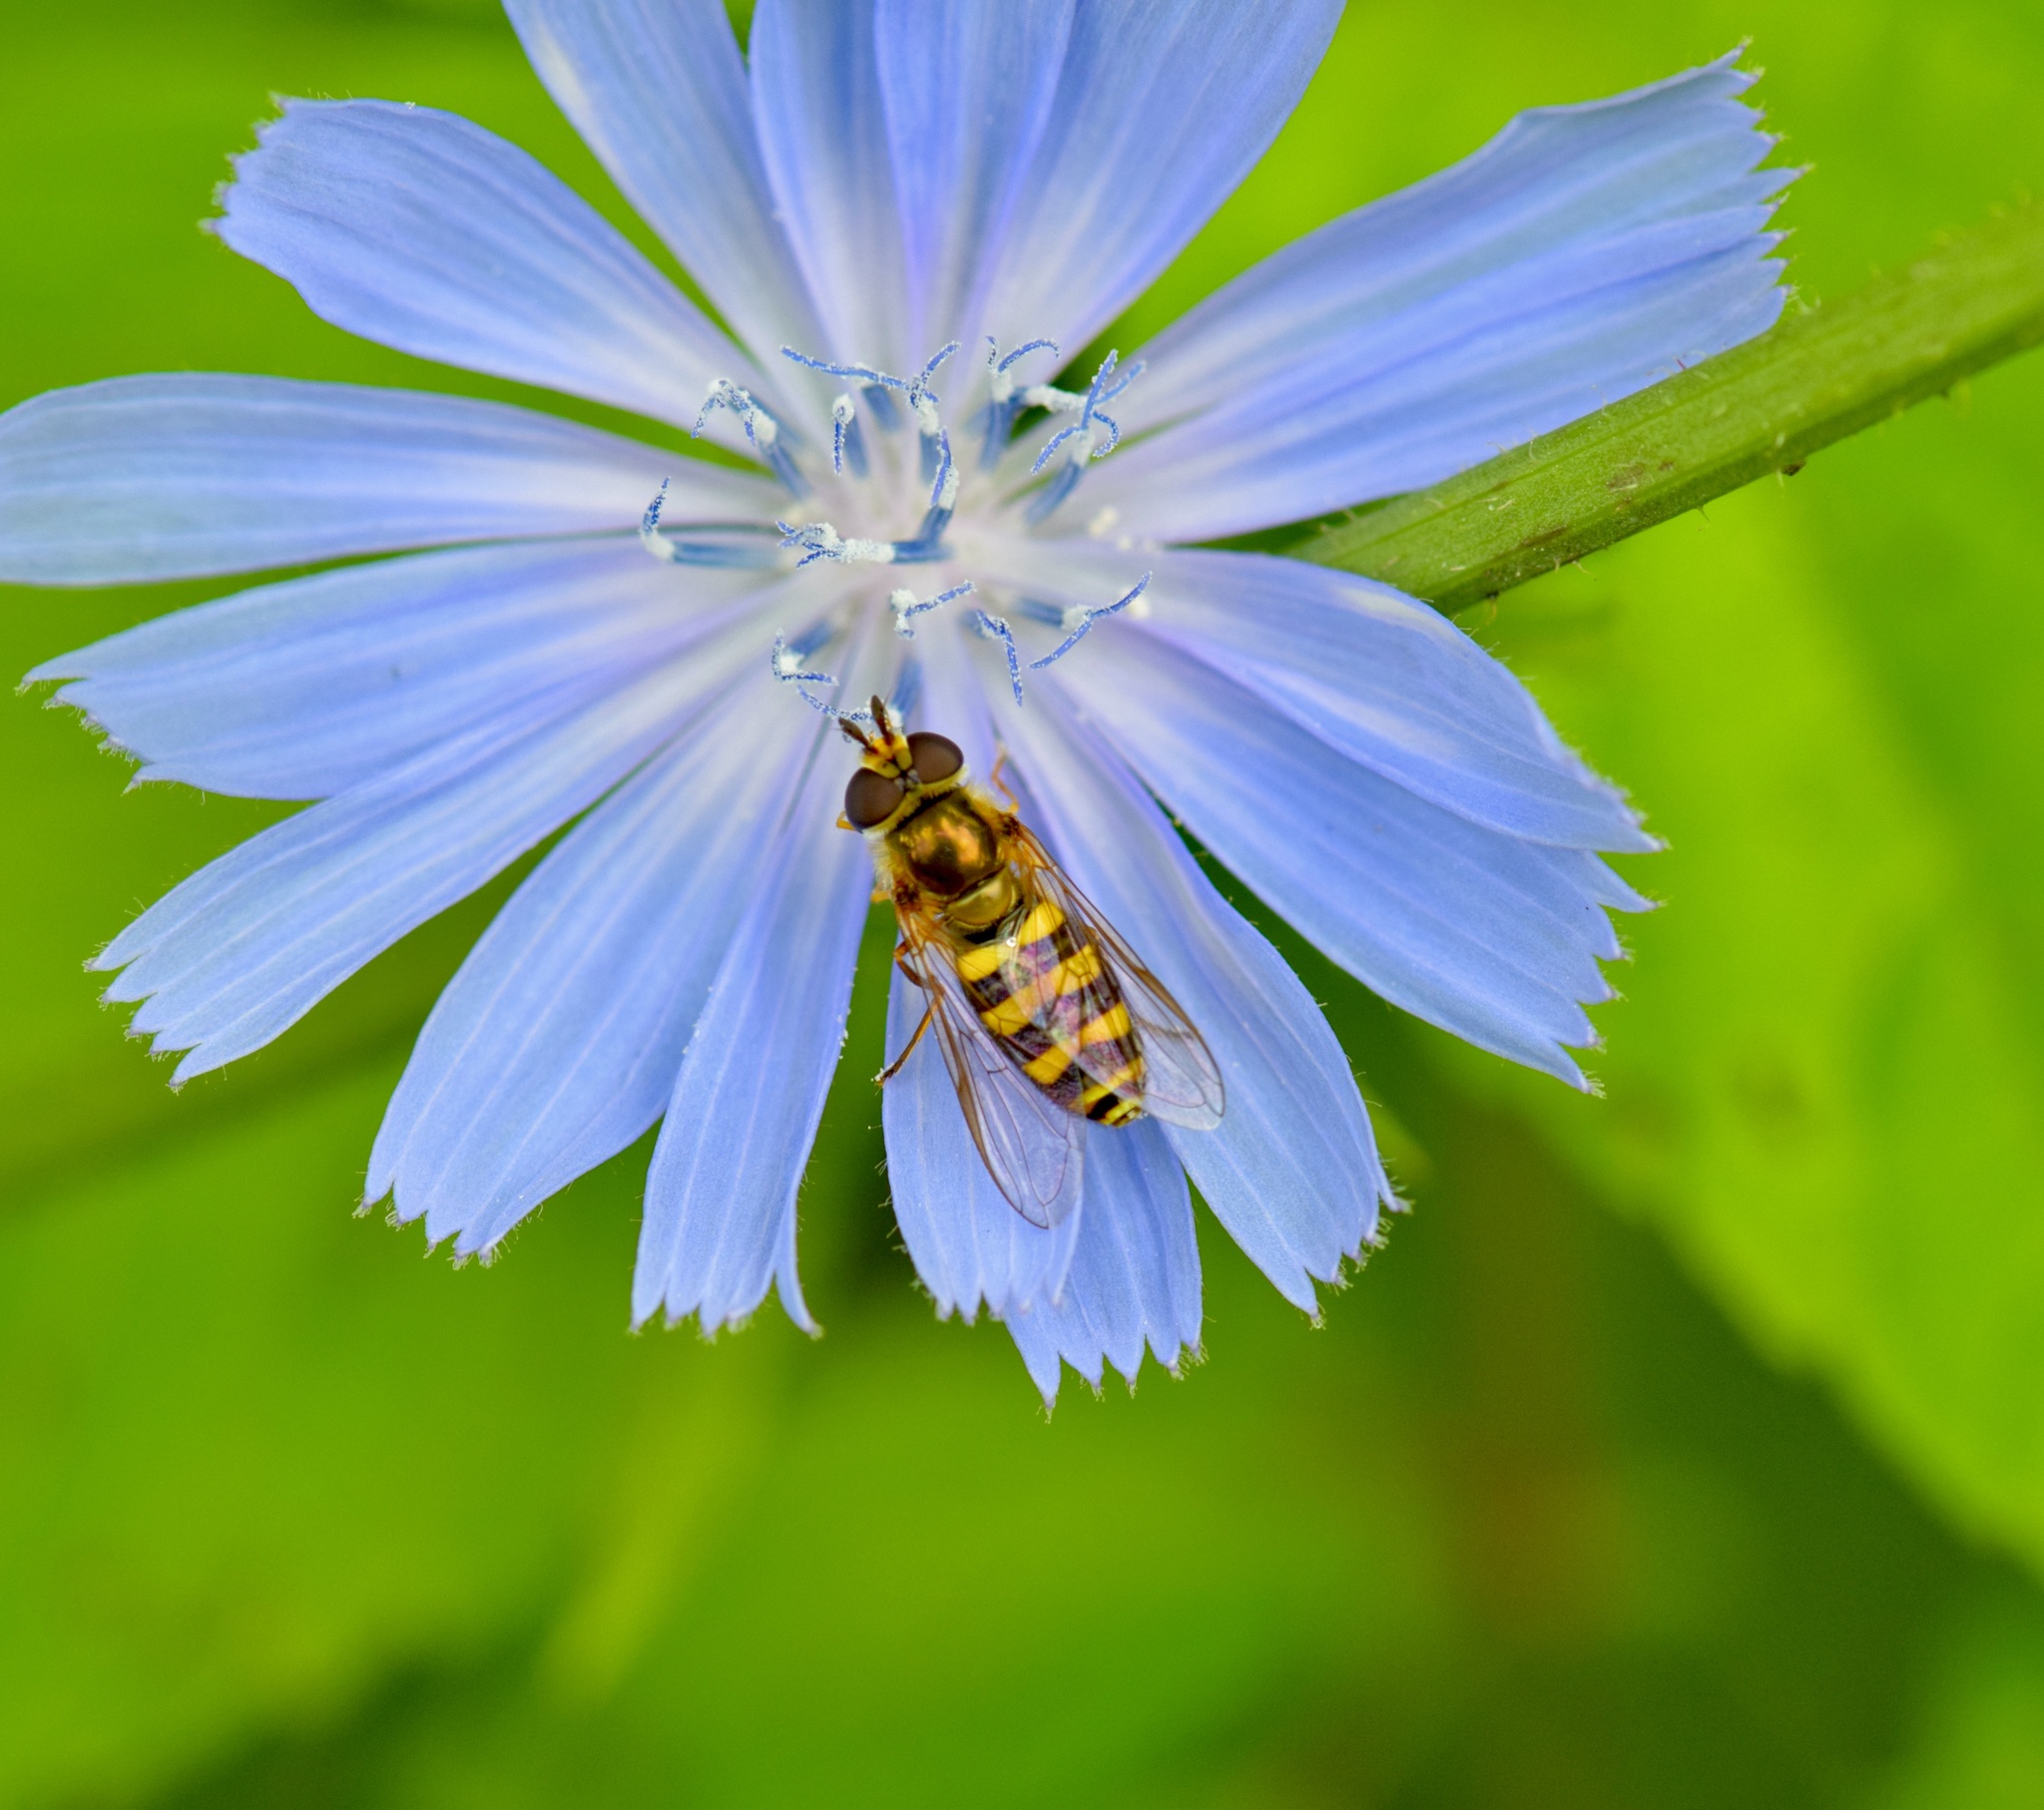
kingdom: Animalia
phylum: Arthropoda
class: Insecta
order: Diptera
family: Syrphidae
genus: Eupeodes
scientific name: Eupeodes
